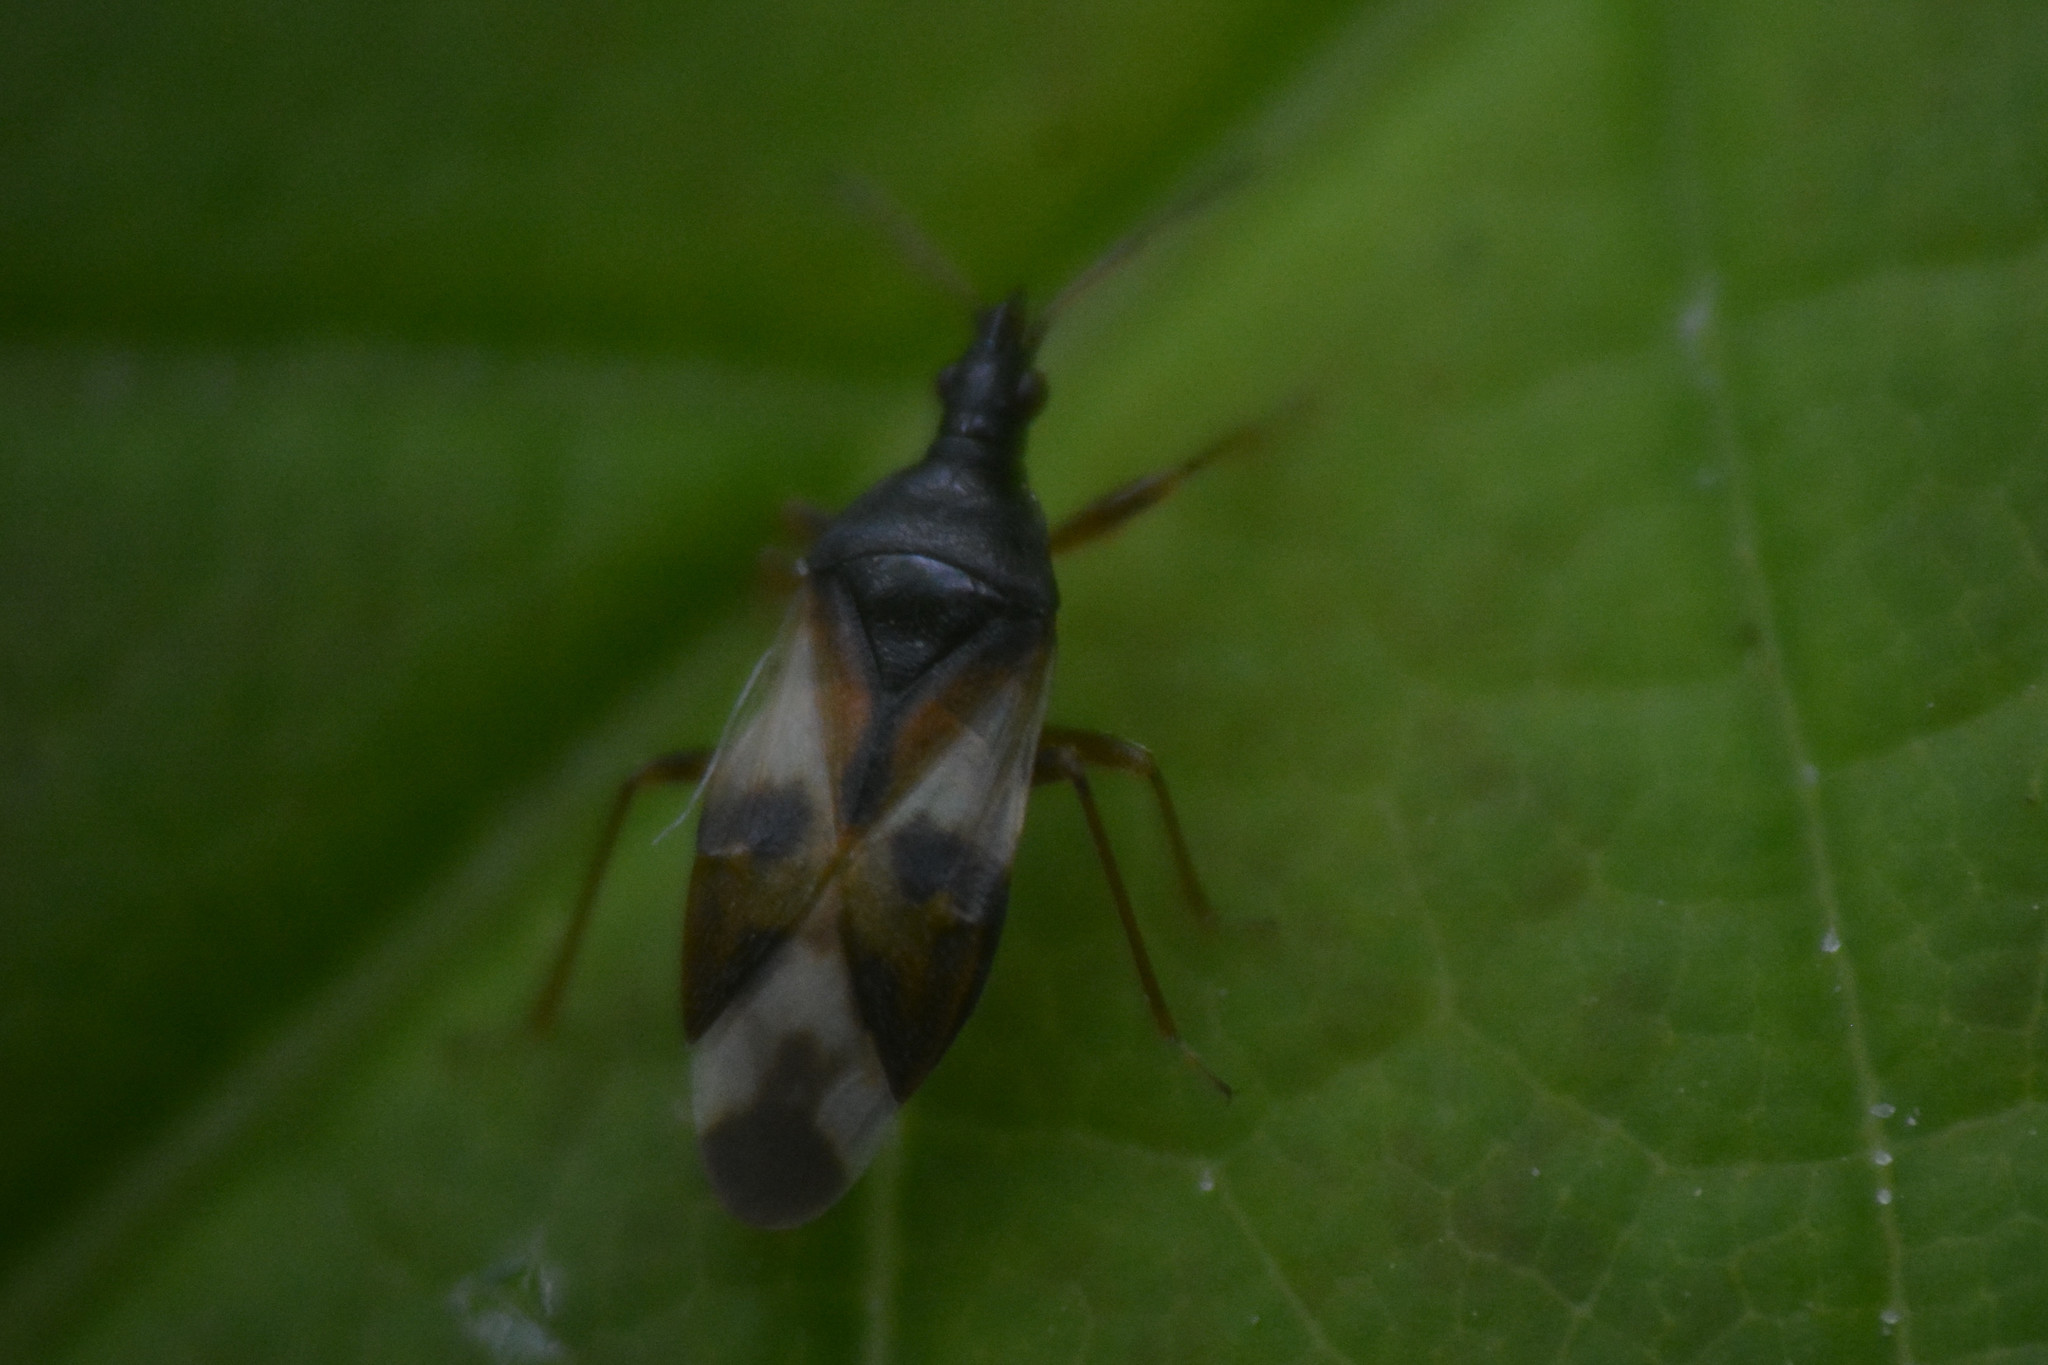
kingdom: Animalia
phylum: Arthropoda
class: Insecta
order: Hemiptera
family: Anthocoridae
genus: Anthocoris
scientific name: Anthocoris nemorum
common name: Minute pirate bug
